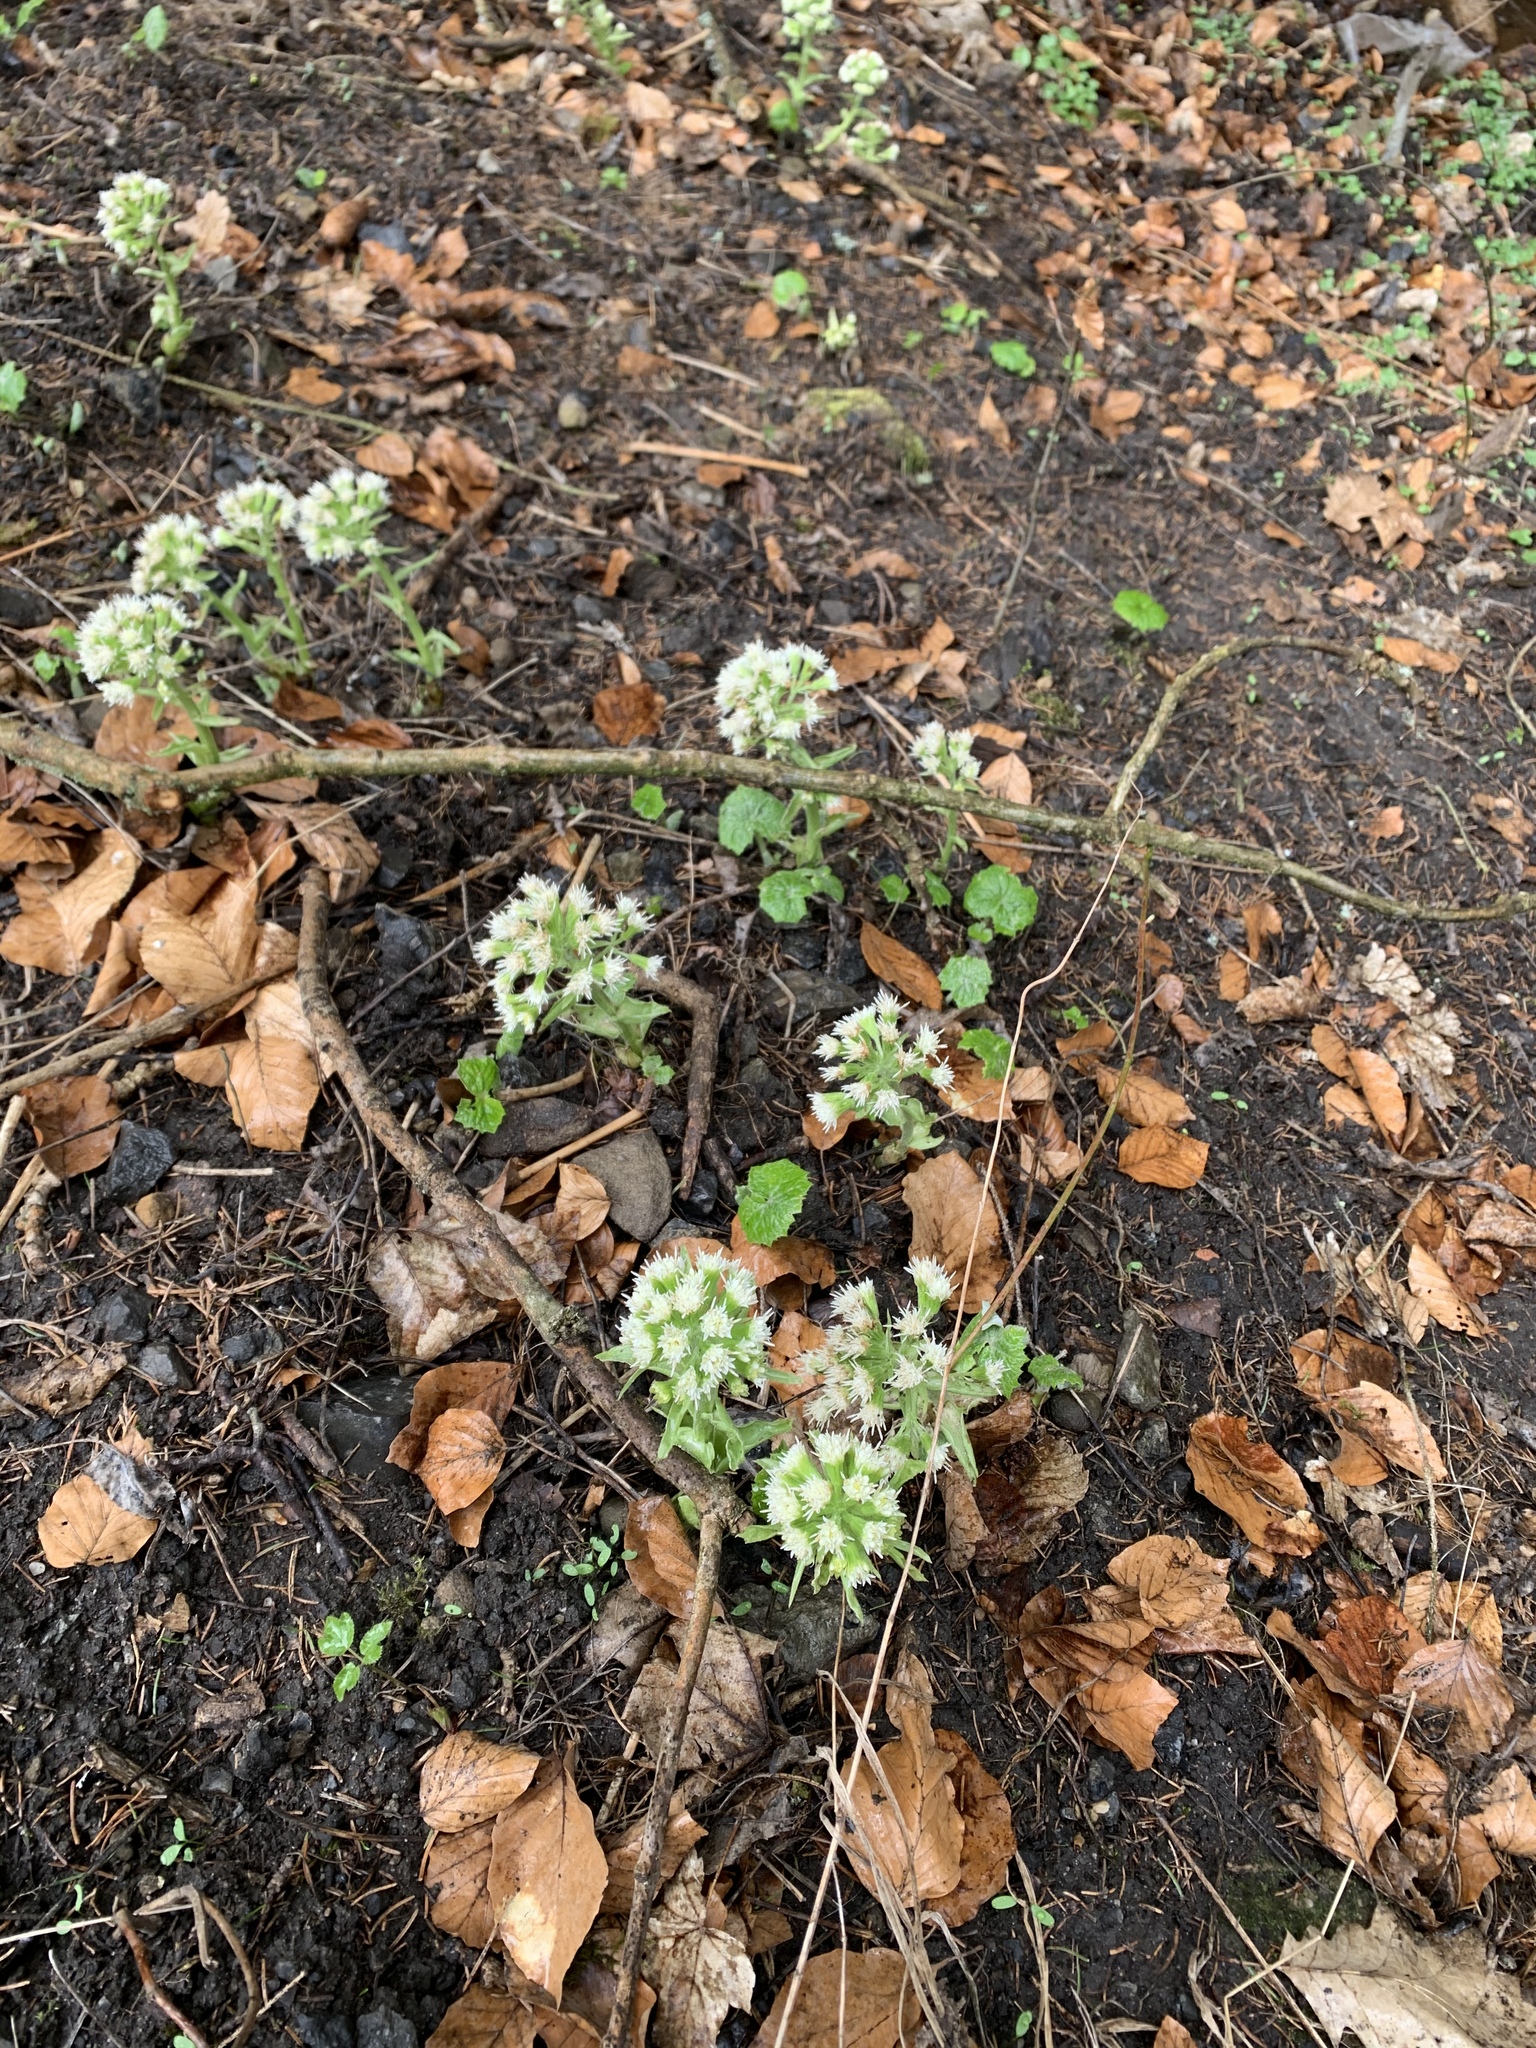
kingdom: Plantae
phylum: Tracheophyta
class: Magnoliopsida
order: Asterales
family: Asteraceae
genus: Petasites
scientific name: Petasites albus
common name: White butterbur
